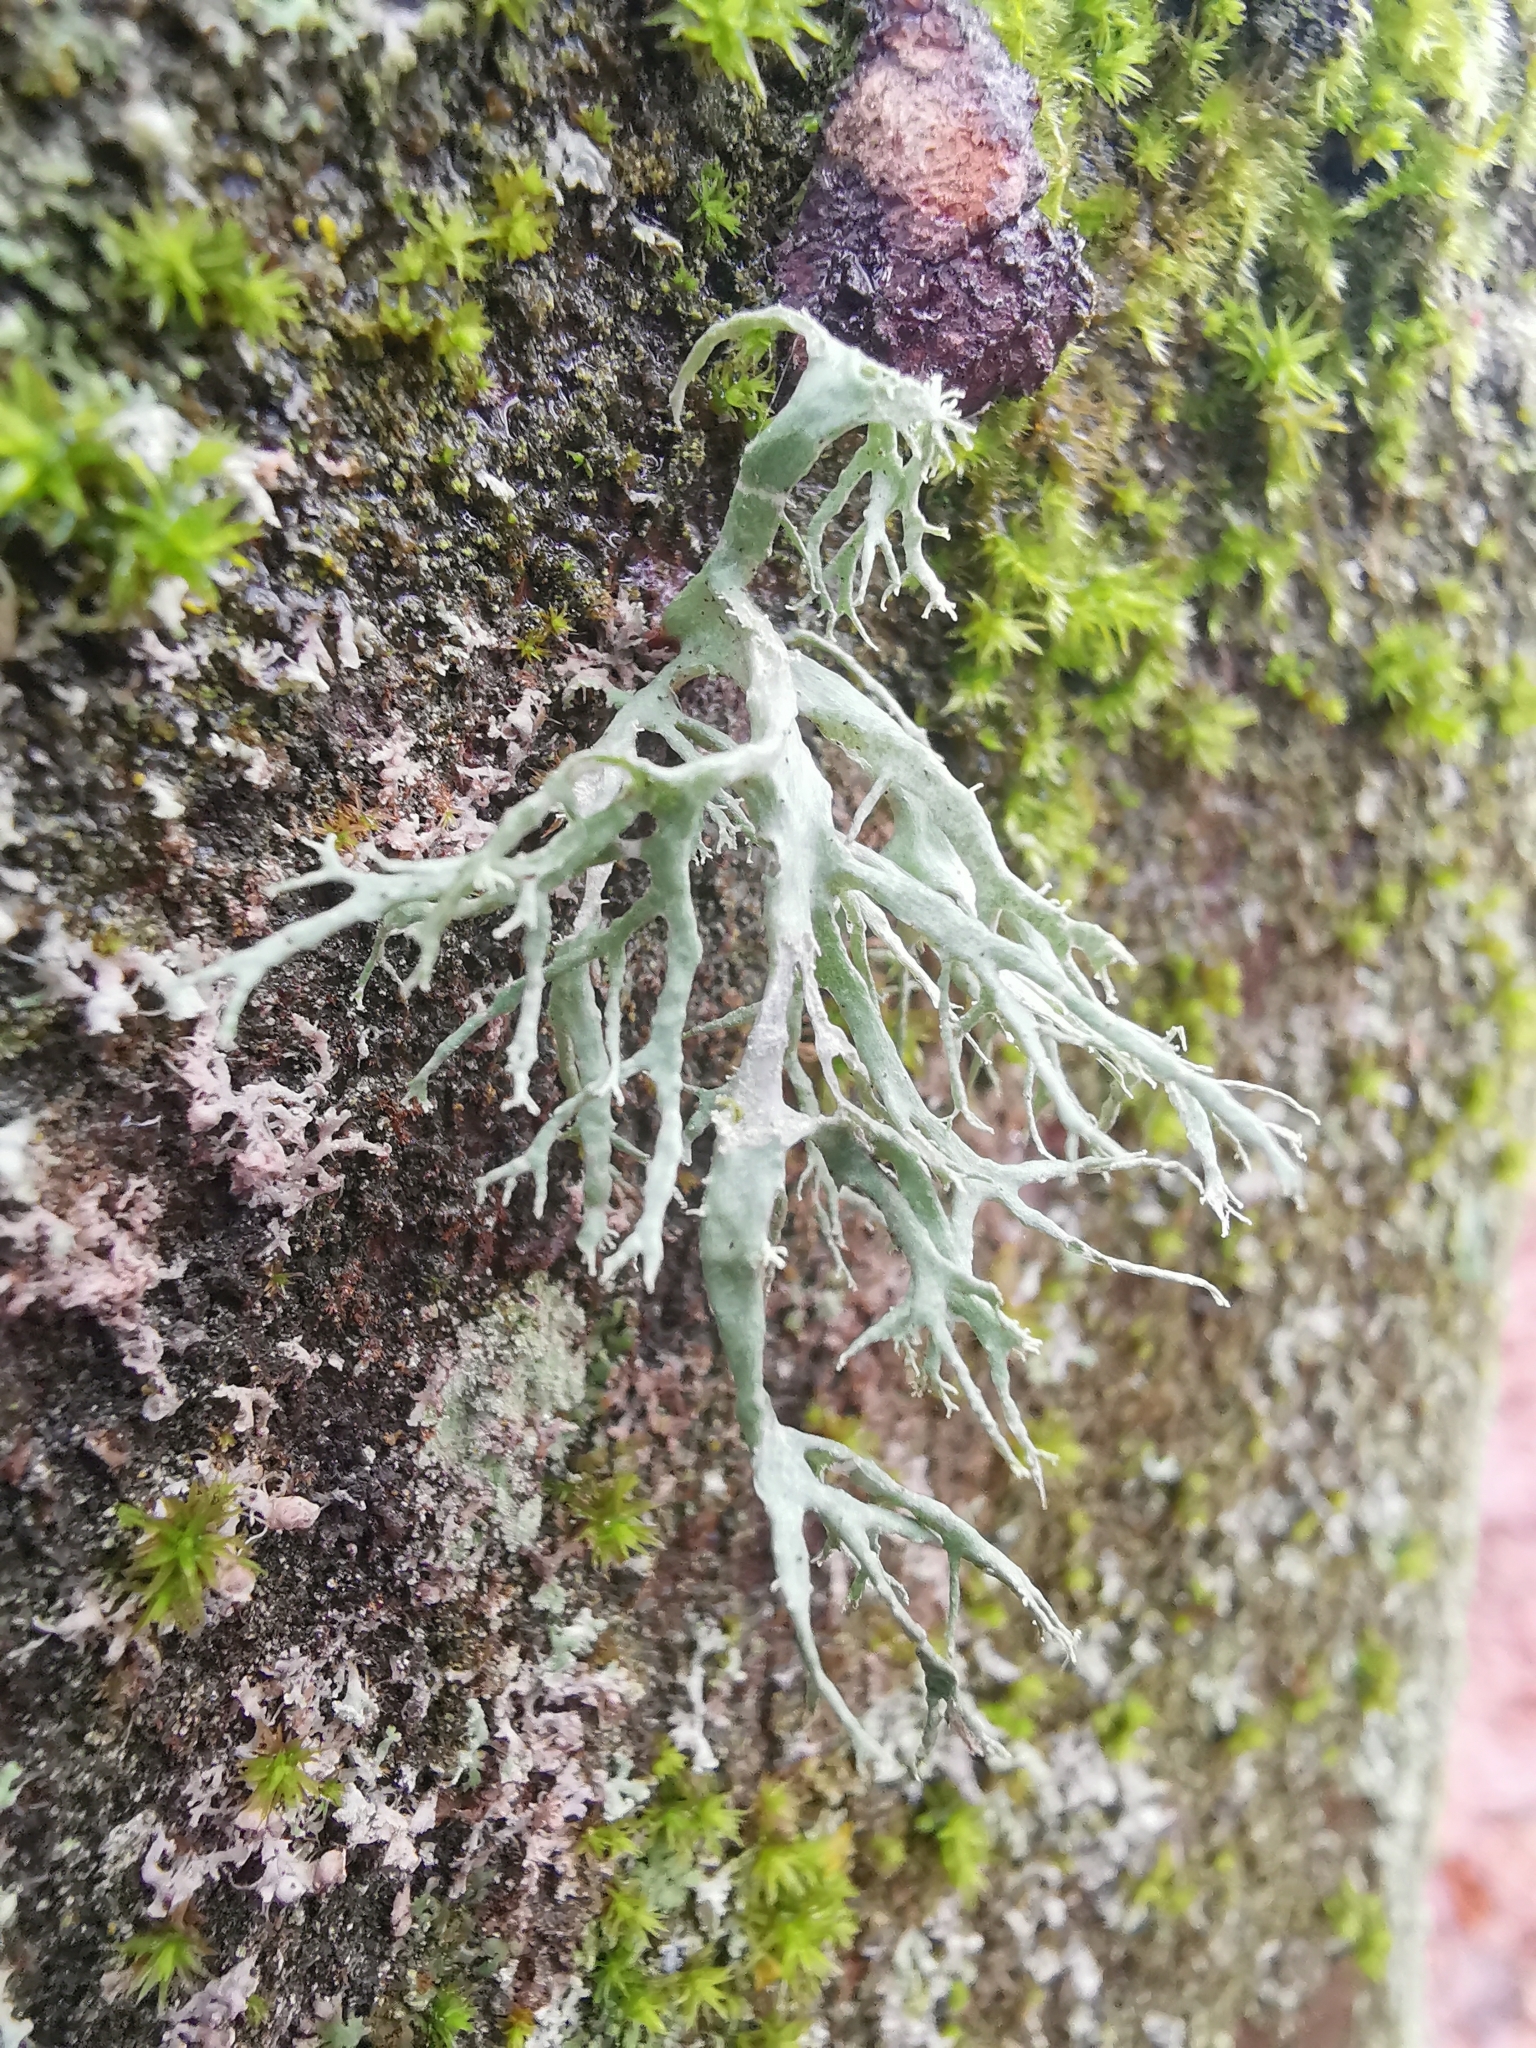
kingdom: Fungi
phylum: Ascomycota
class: Lecanoromycetes
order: Lecanorales
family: Ramalinaceae
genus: Ramalina
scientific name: Ramalina farinacea
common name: Farinose cartilage lichen
